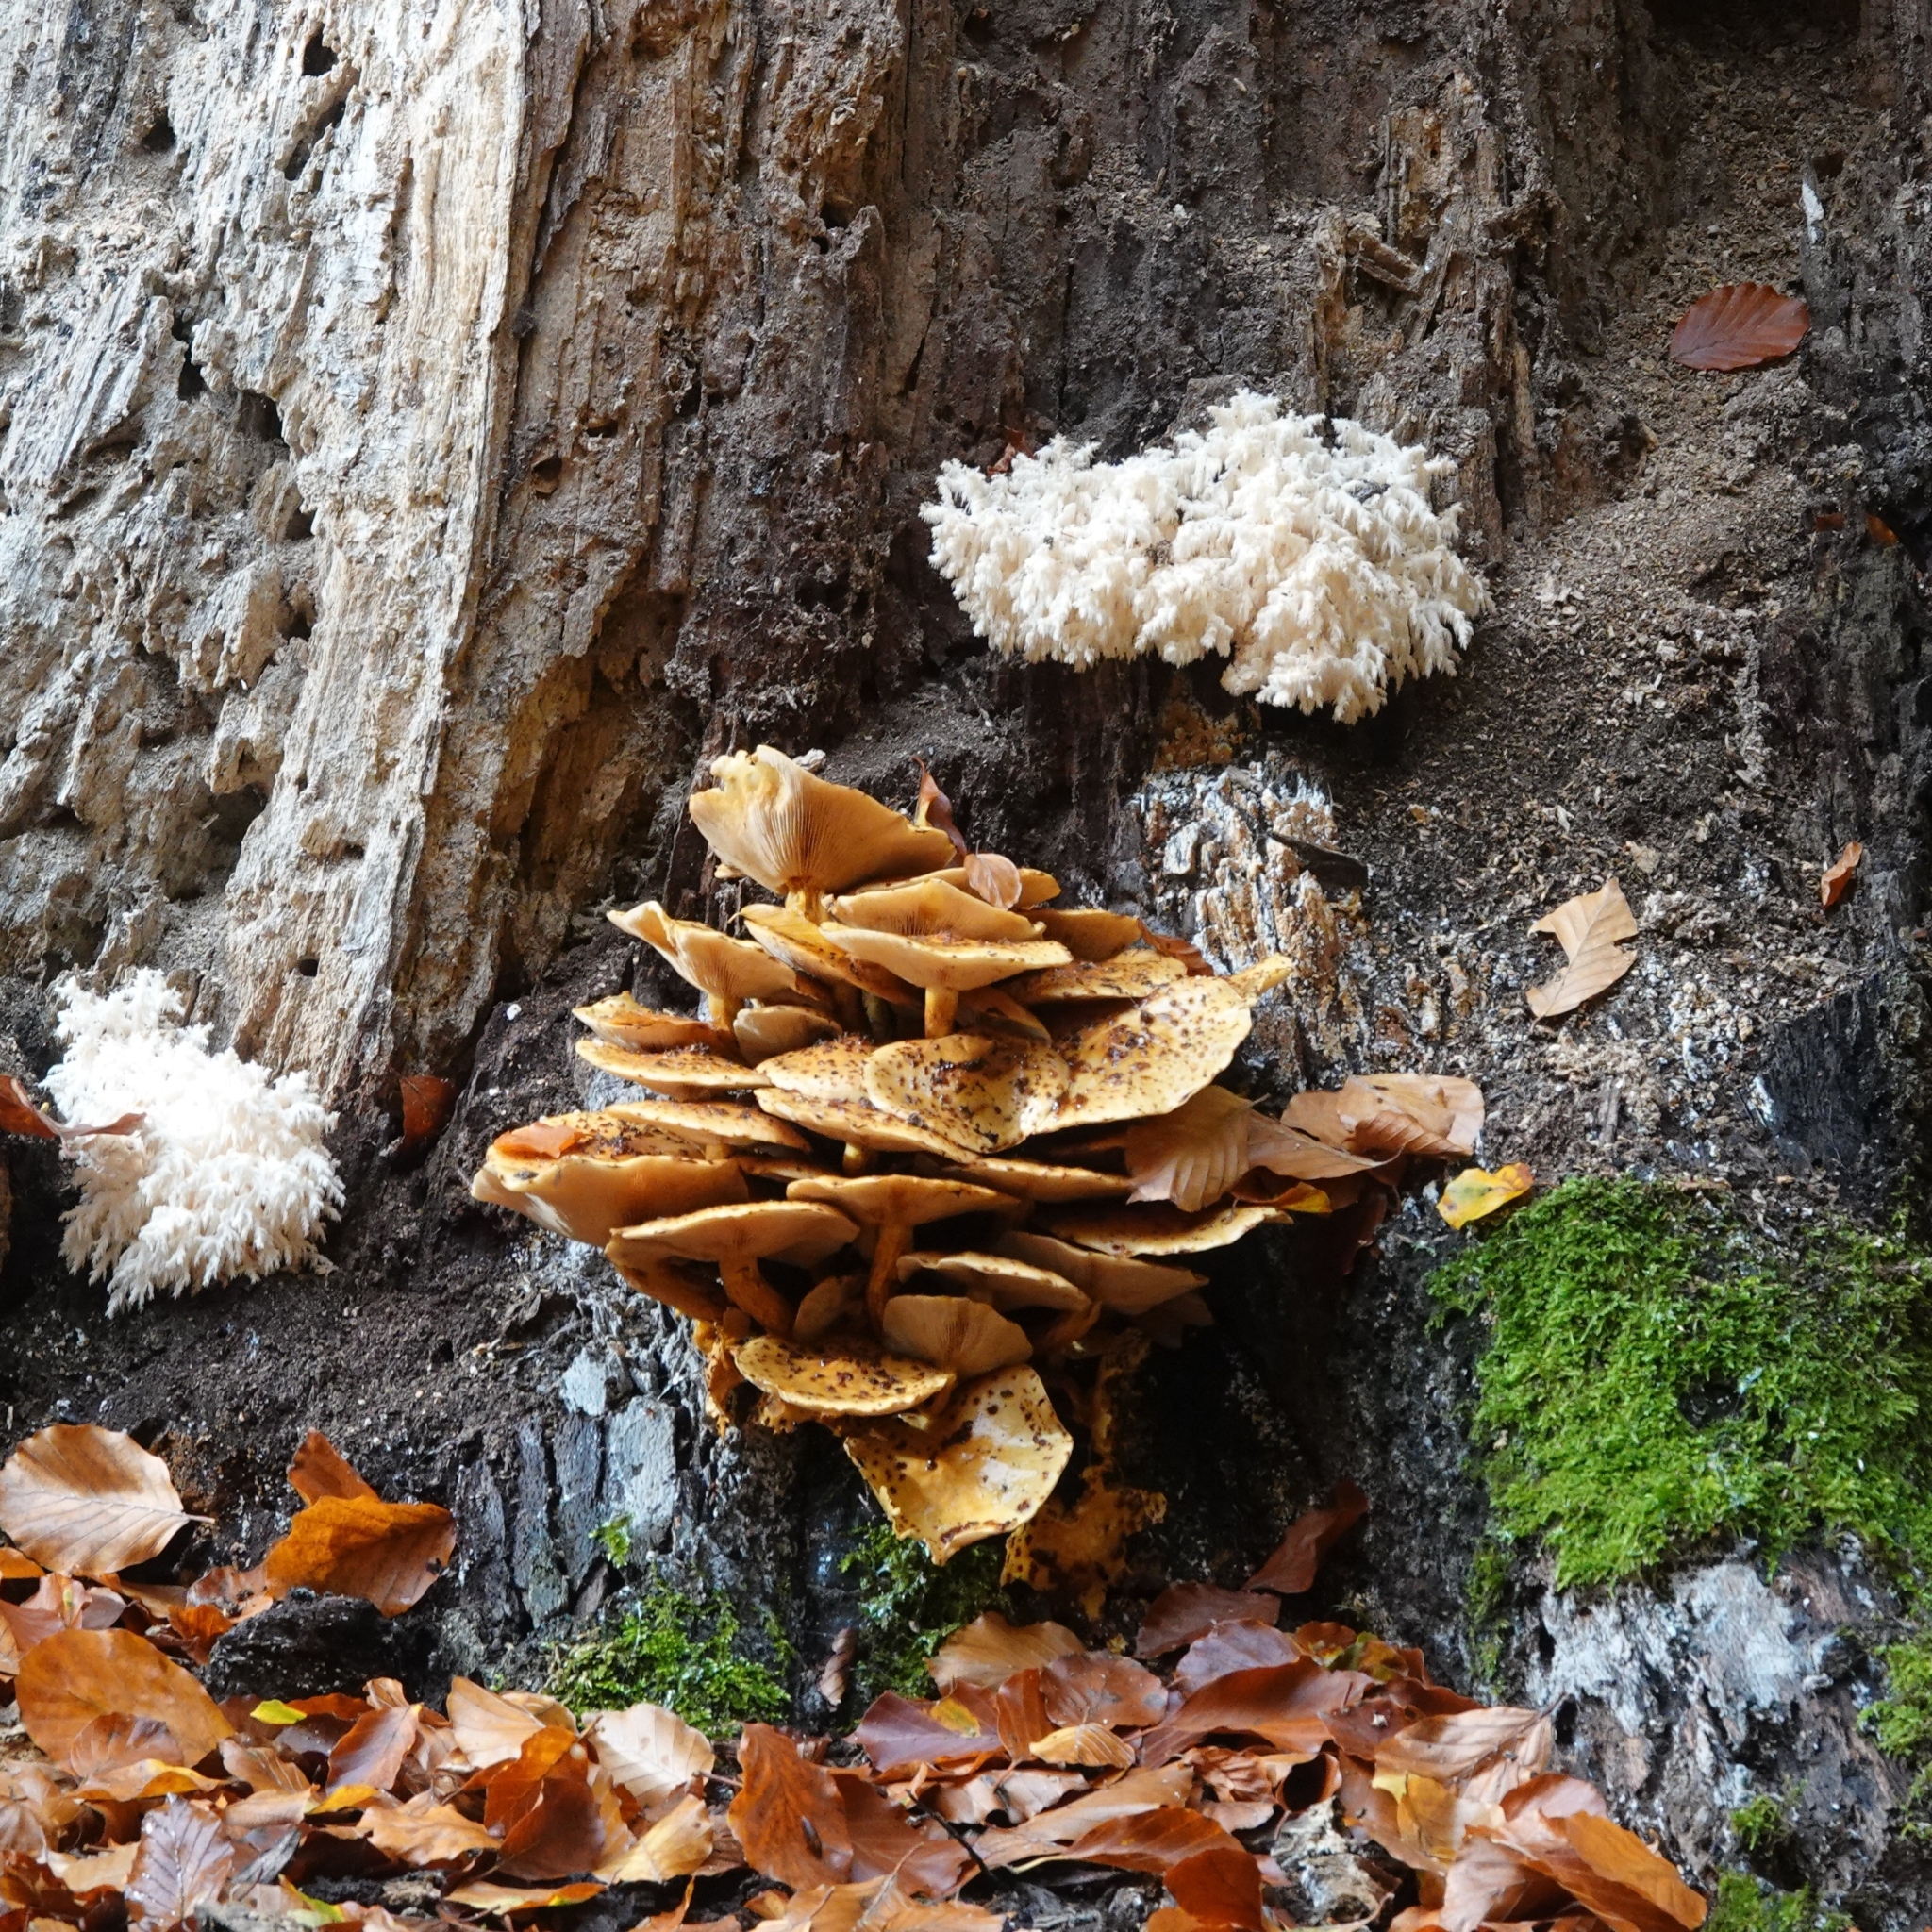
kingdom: Fungi
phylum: Basidiomycota
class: Agaricomycetes
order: Russulales
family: Hericiaceae
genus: Hericium
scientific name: Hericium coralloides
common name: Coral tooth
